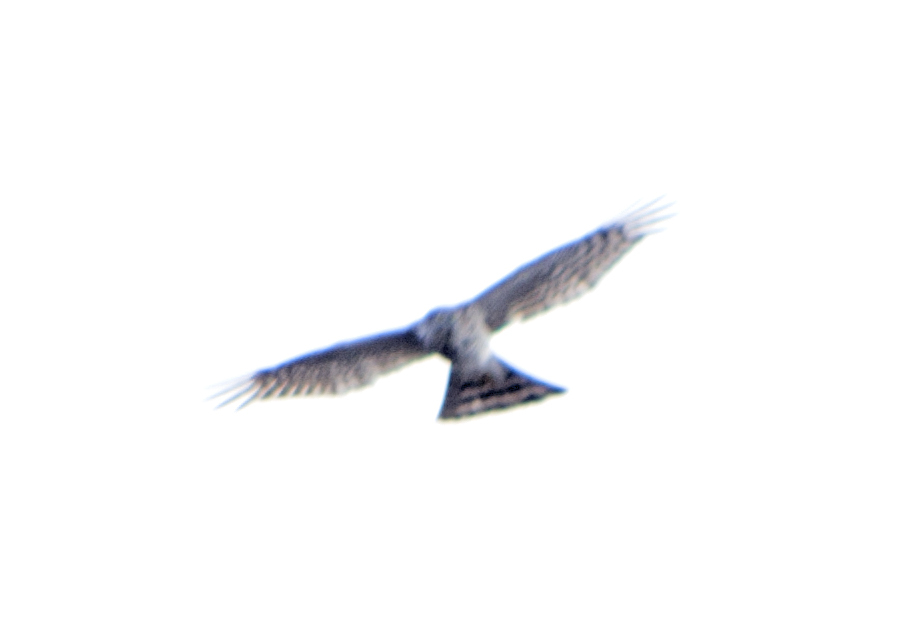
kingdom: Animalia
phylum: Chordata
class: Aves
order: Accipitriformes
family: Accipitridae
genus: Accipiter
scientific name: Accipiter nisus
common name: Eurasian sparrowhawk
